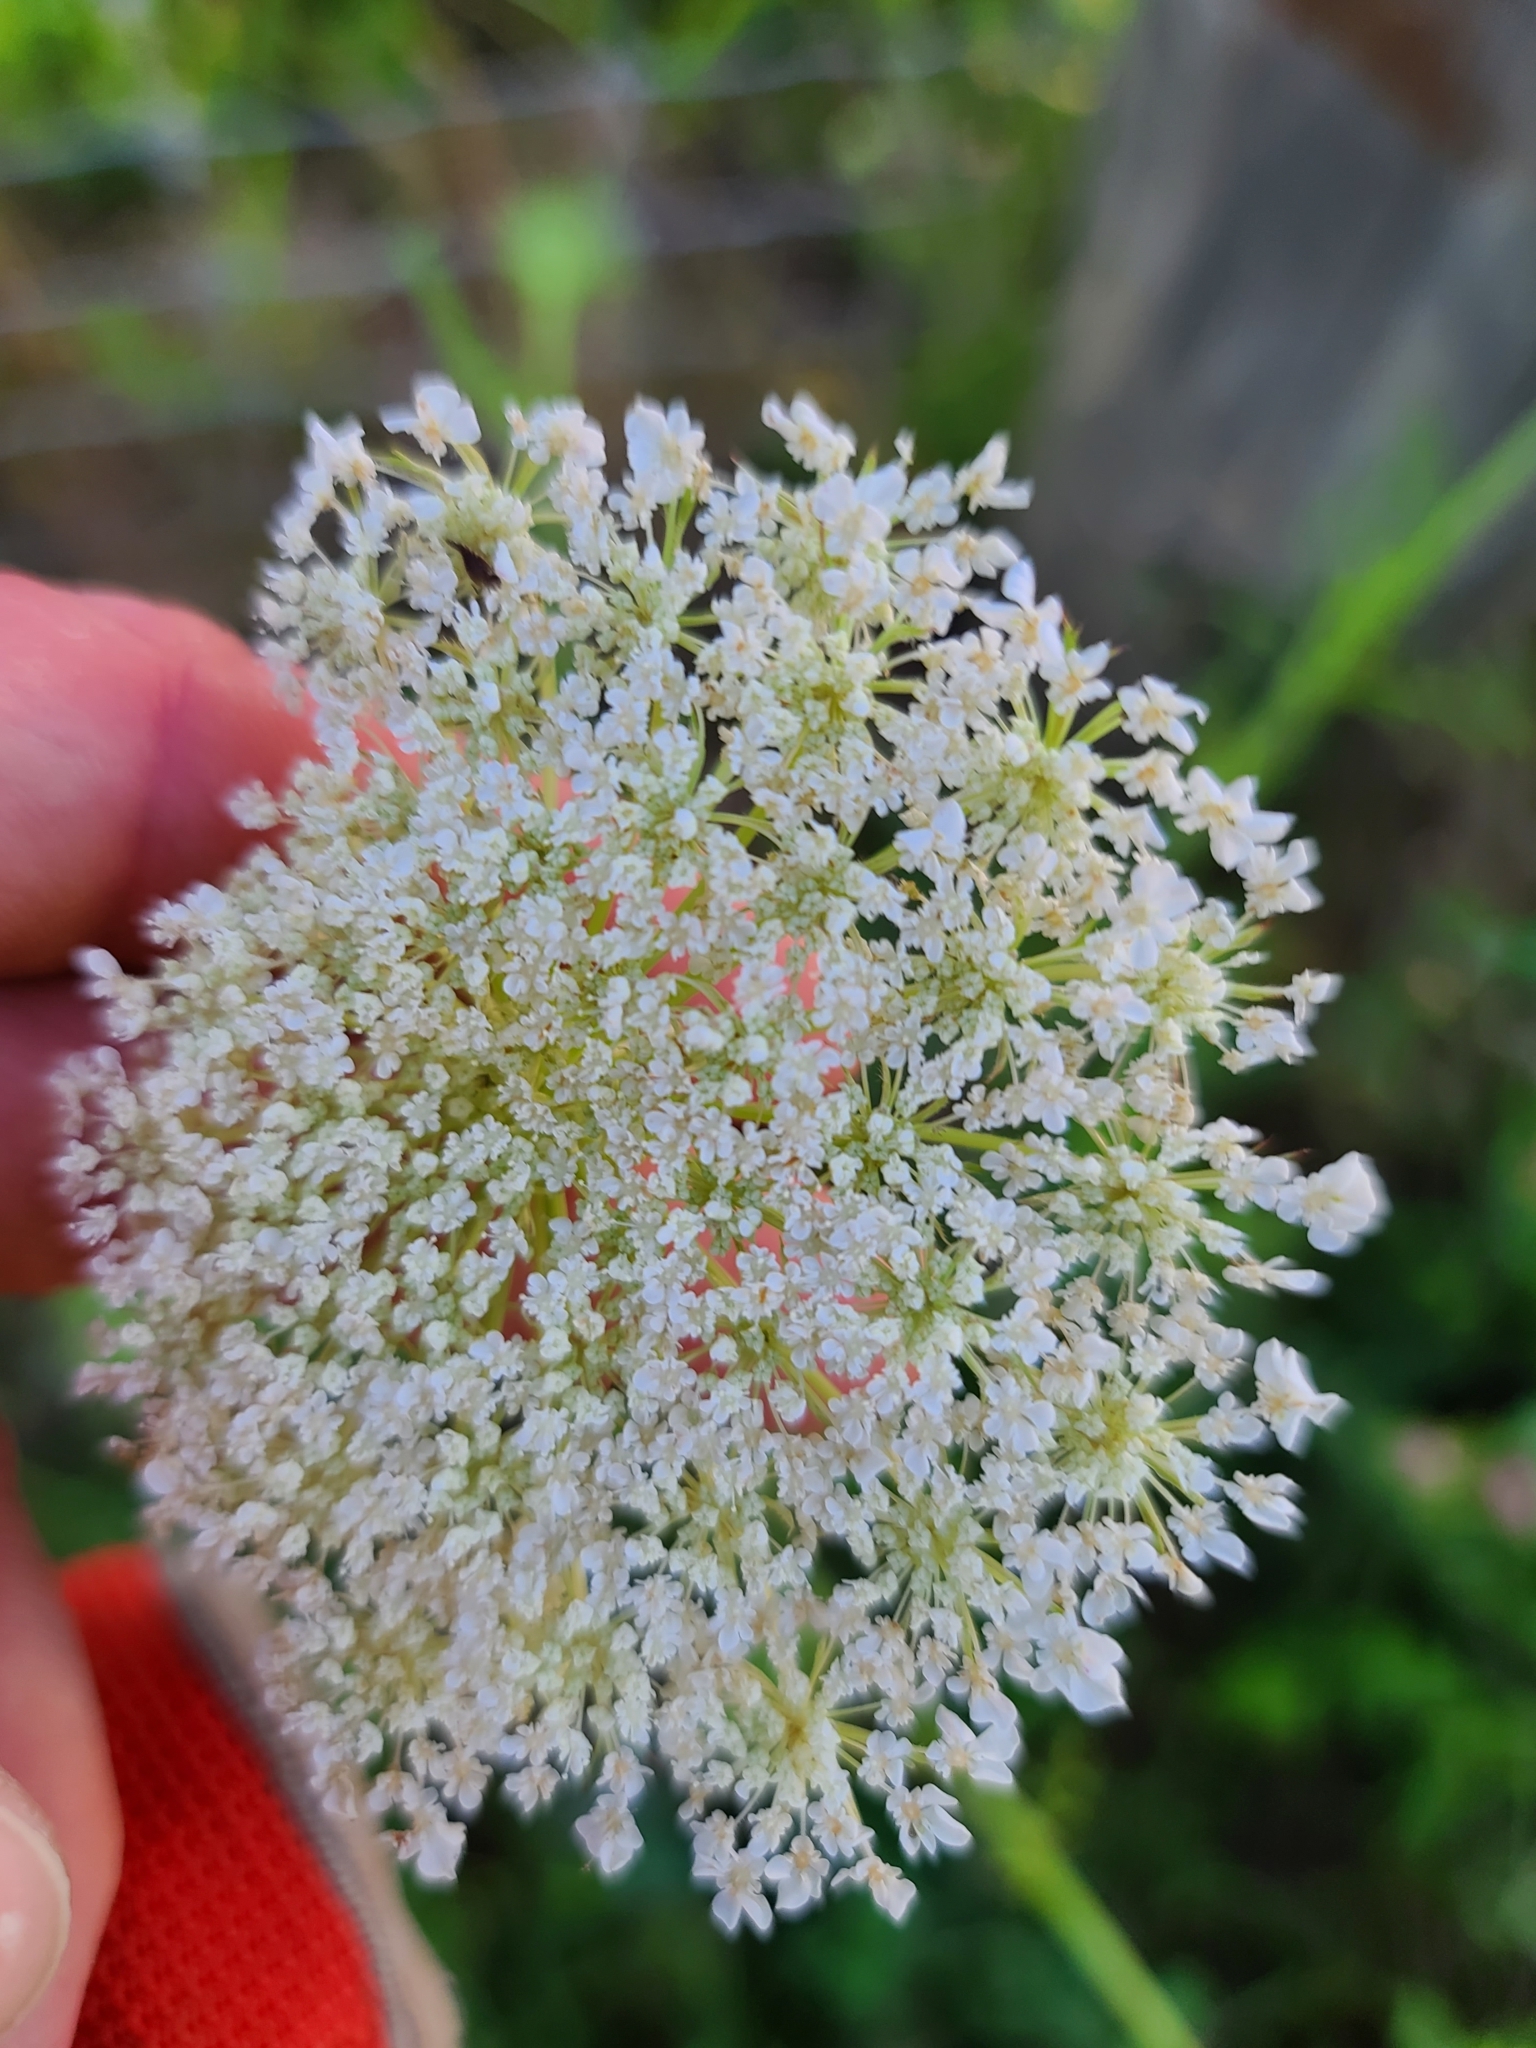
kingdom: Plantae
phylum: Tracheophyta
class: Magnoliopsida
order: Apiales
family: Apiaceae
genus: Daucus
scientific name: Daucus carota
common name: Wild carrot
